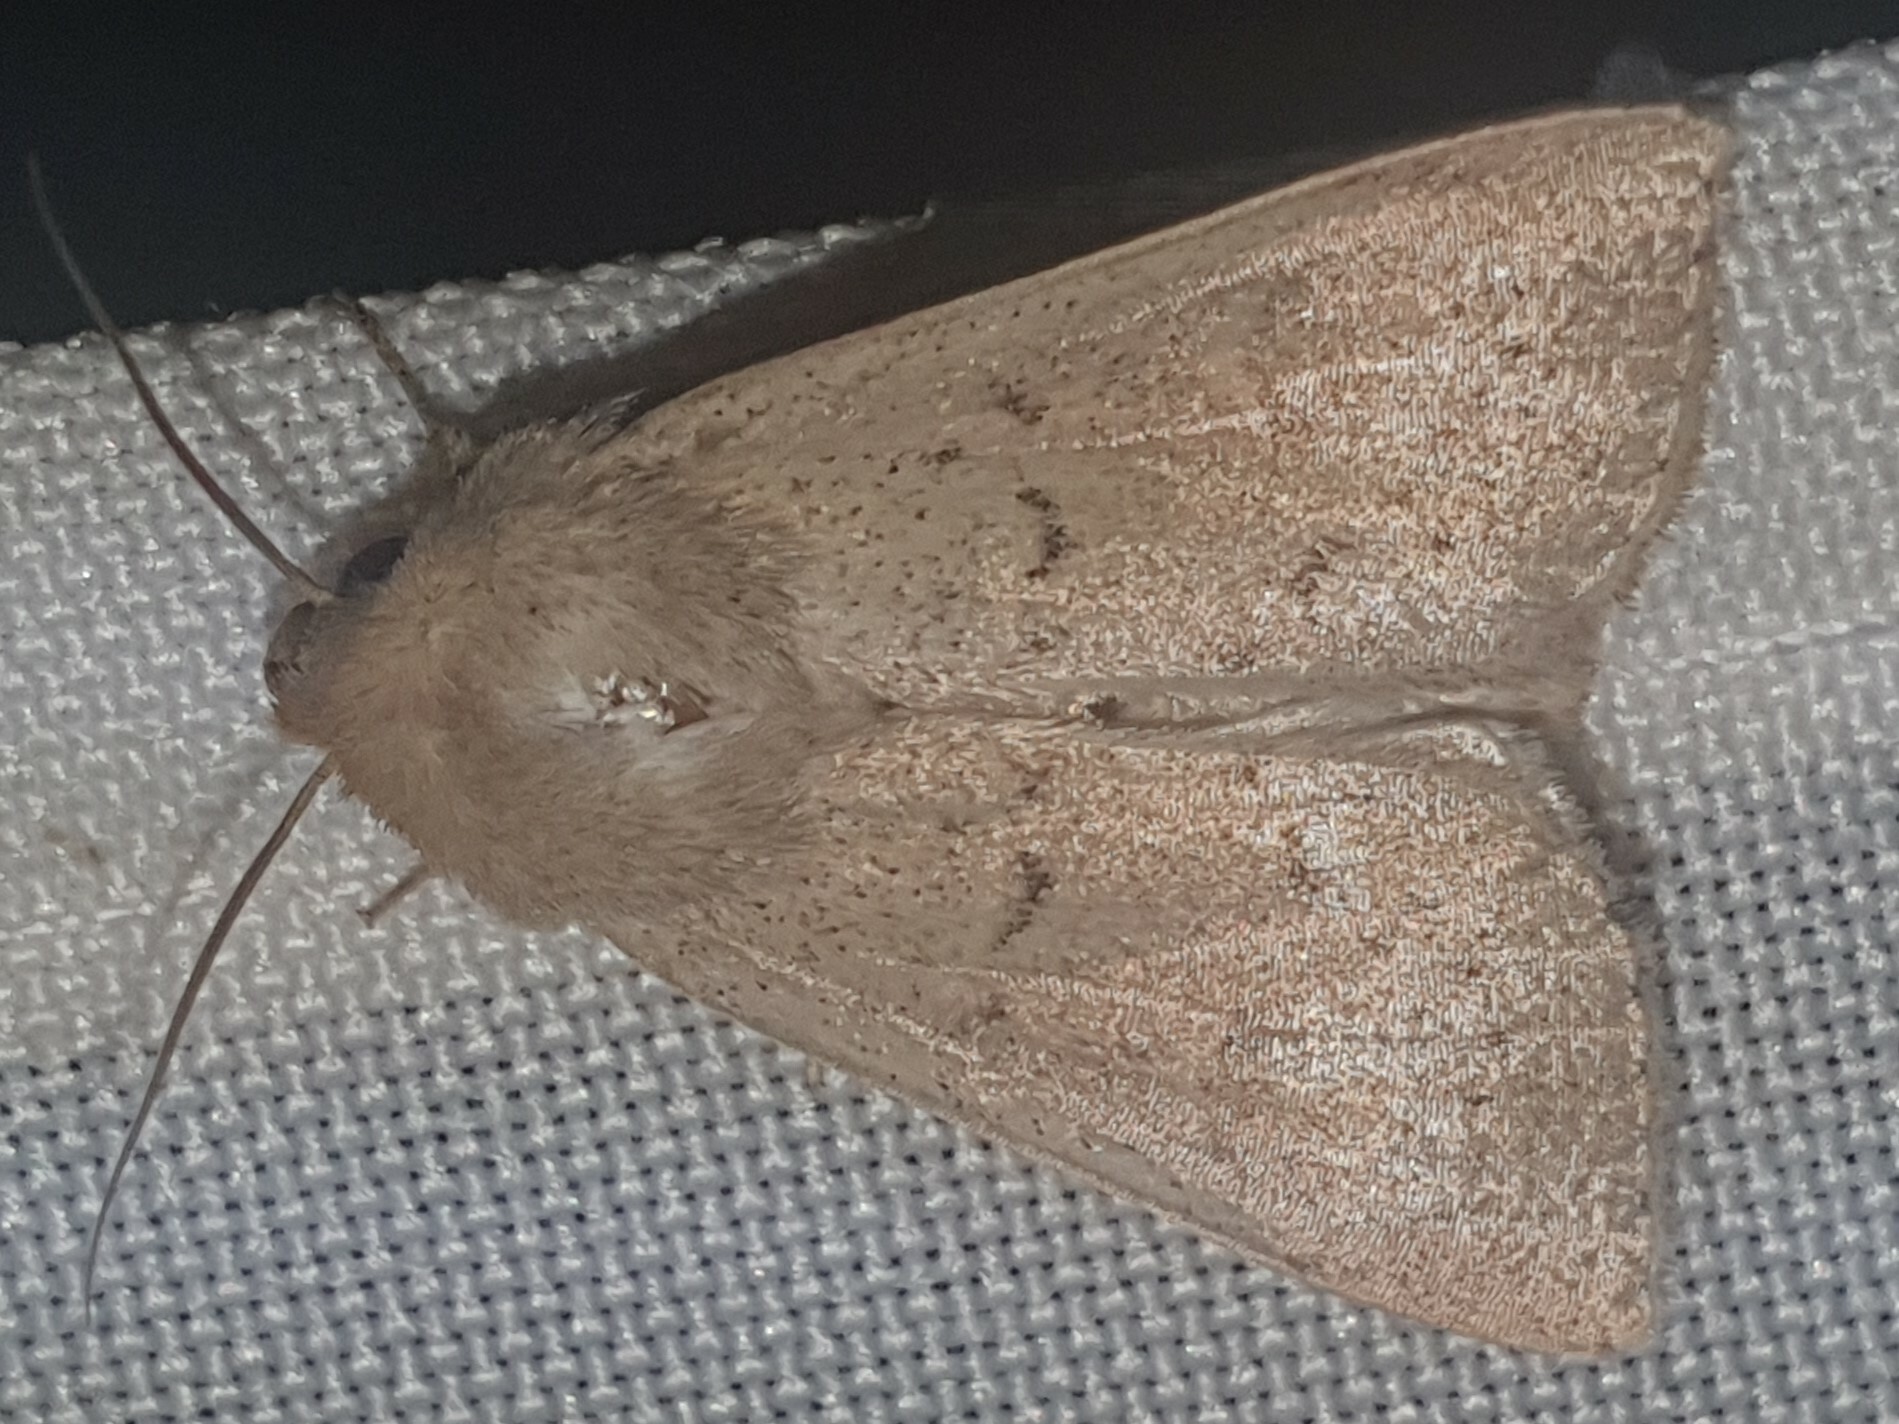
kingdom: Animalia
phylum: Arthropoda
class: Insecta
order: Lepidoptera
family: Noctuidae
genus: Mythimna
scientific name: Mythimna ferrago
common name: Clay
